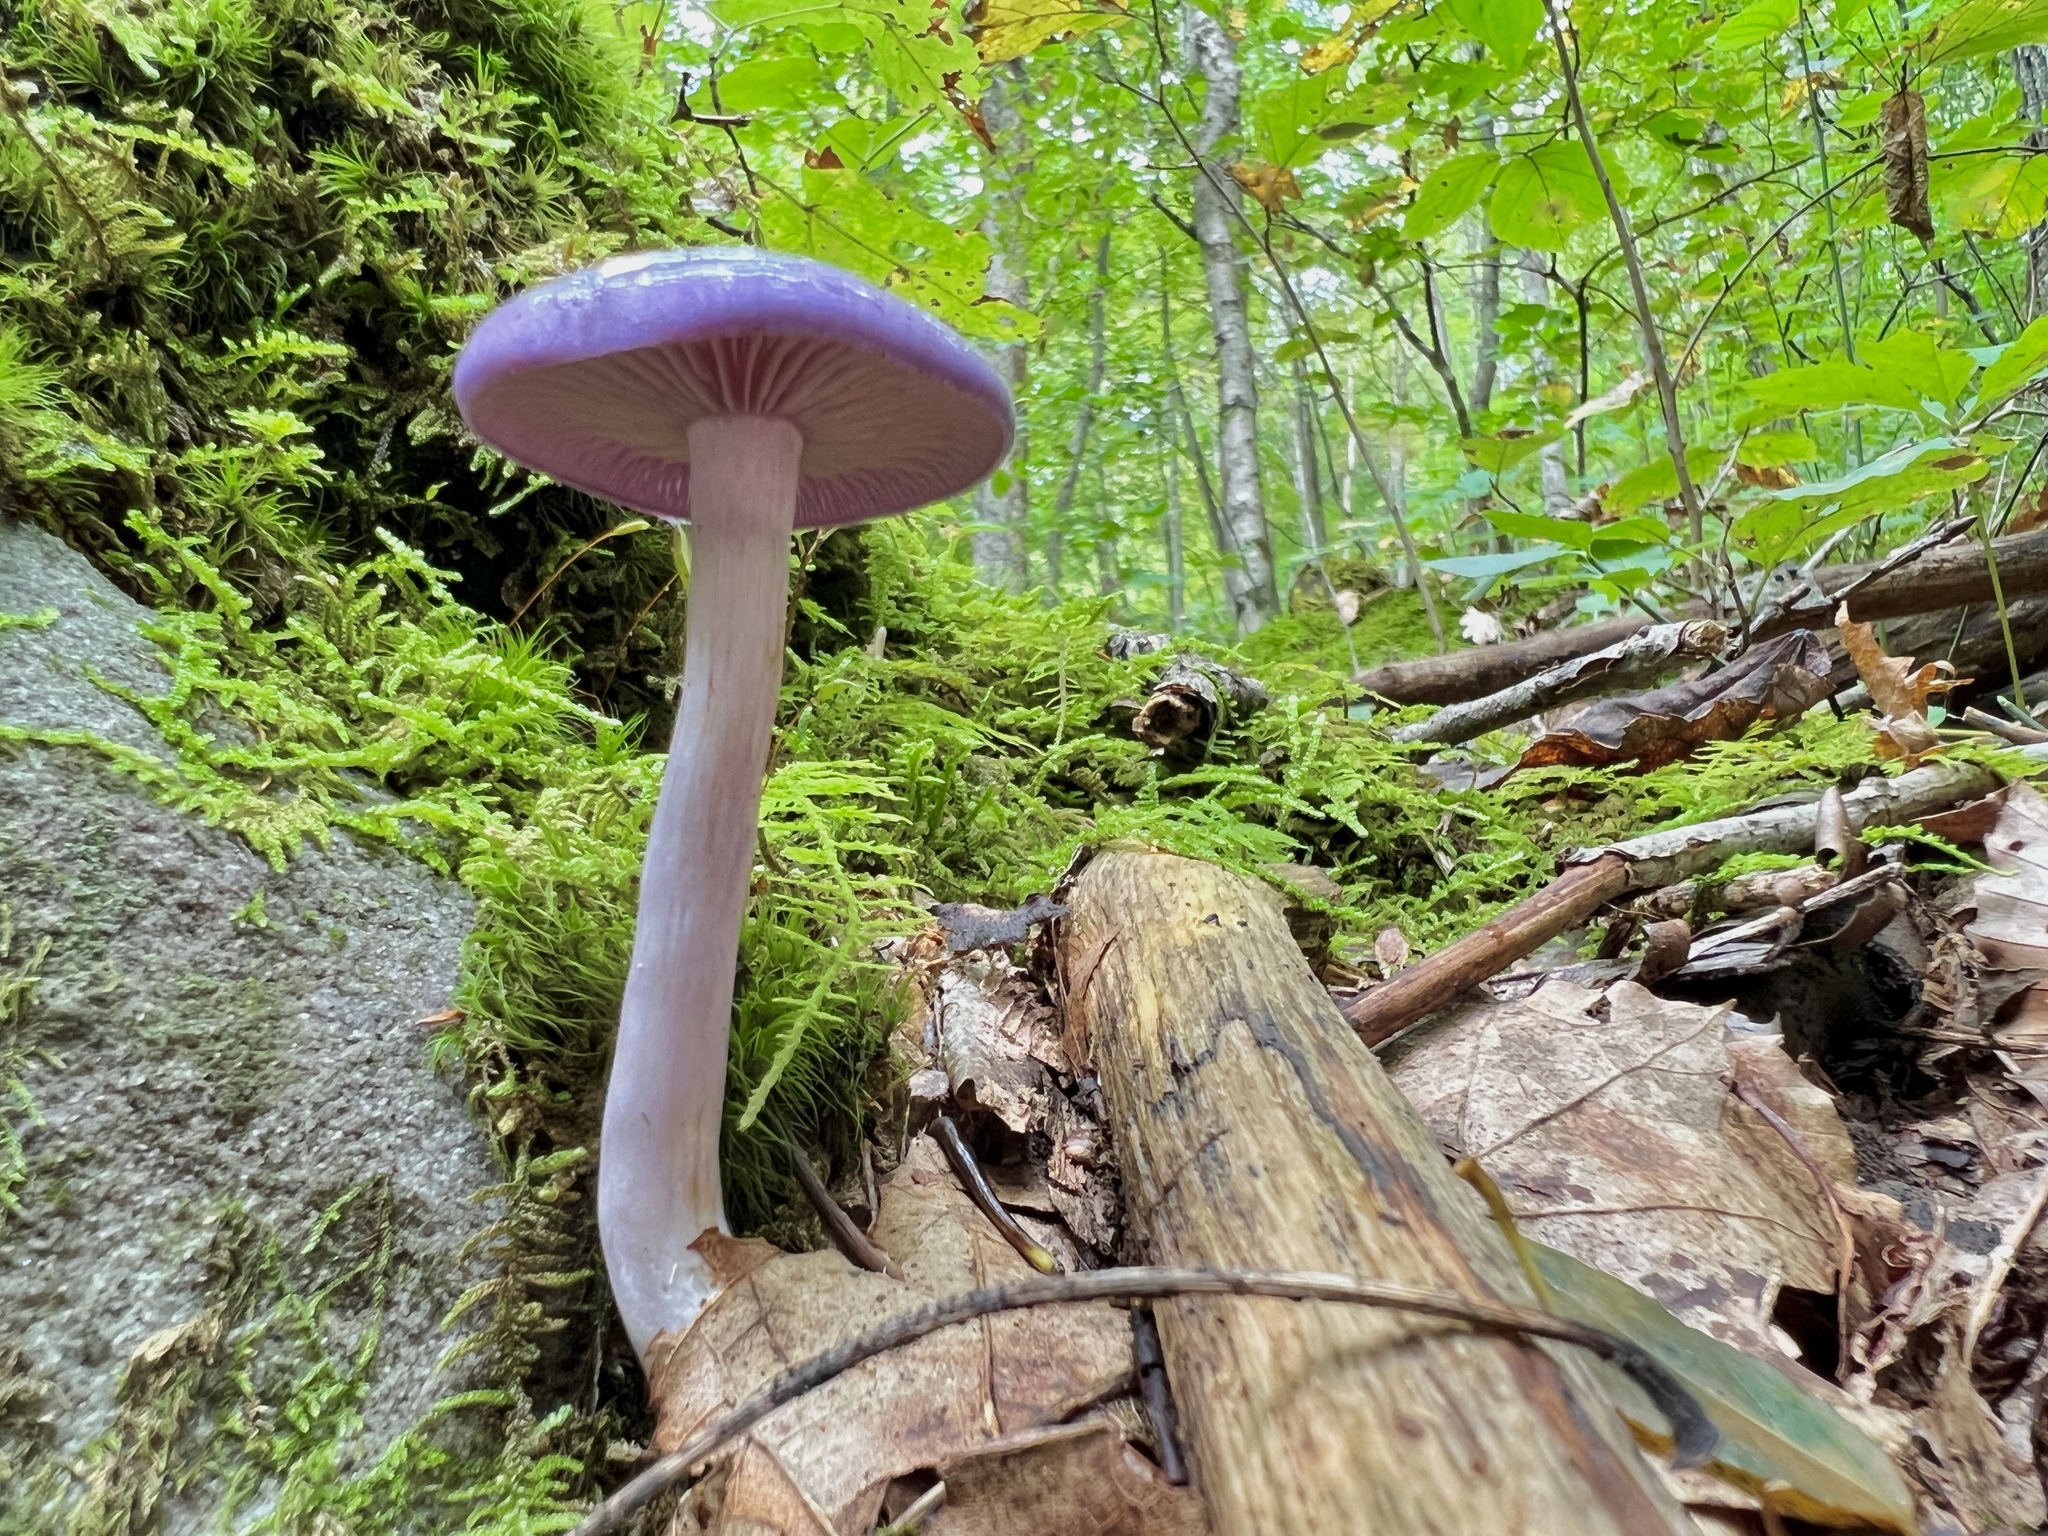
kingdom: Fungi
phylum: Basidiomycota
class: Agaricomycetes
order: Agaricales
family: Cortinariaceae
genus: Cortinarius
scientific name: Cortinarius iodes
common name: Viscid violet cort
